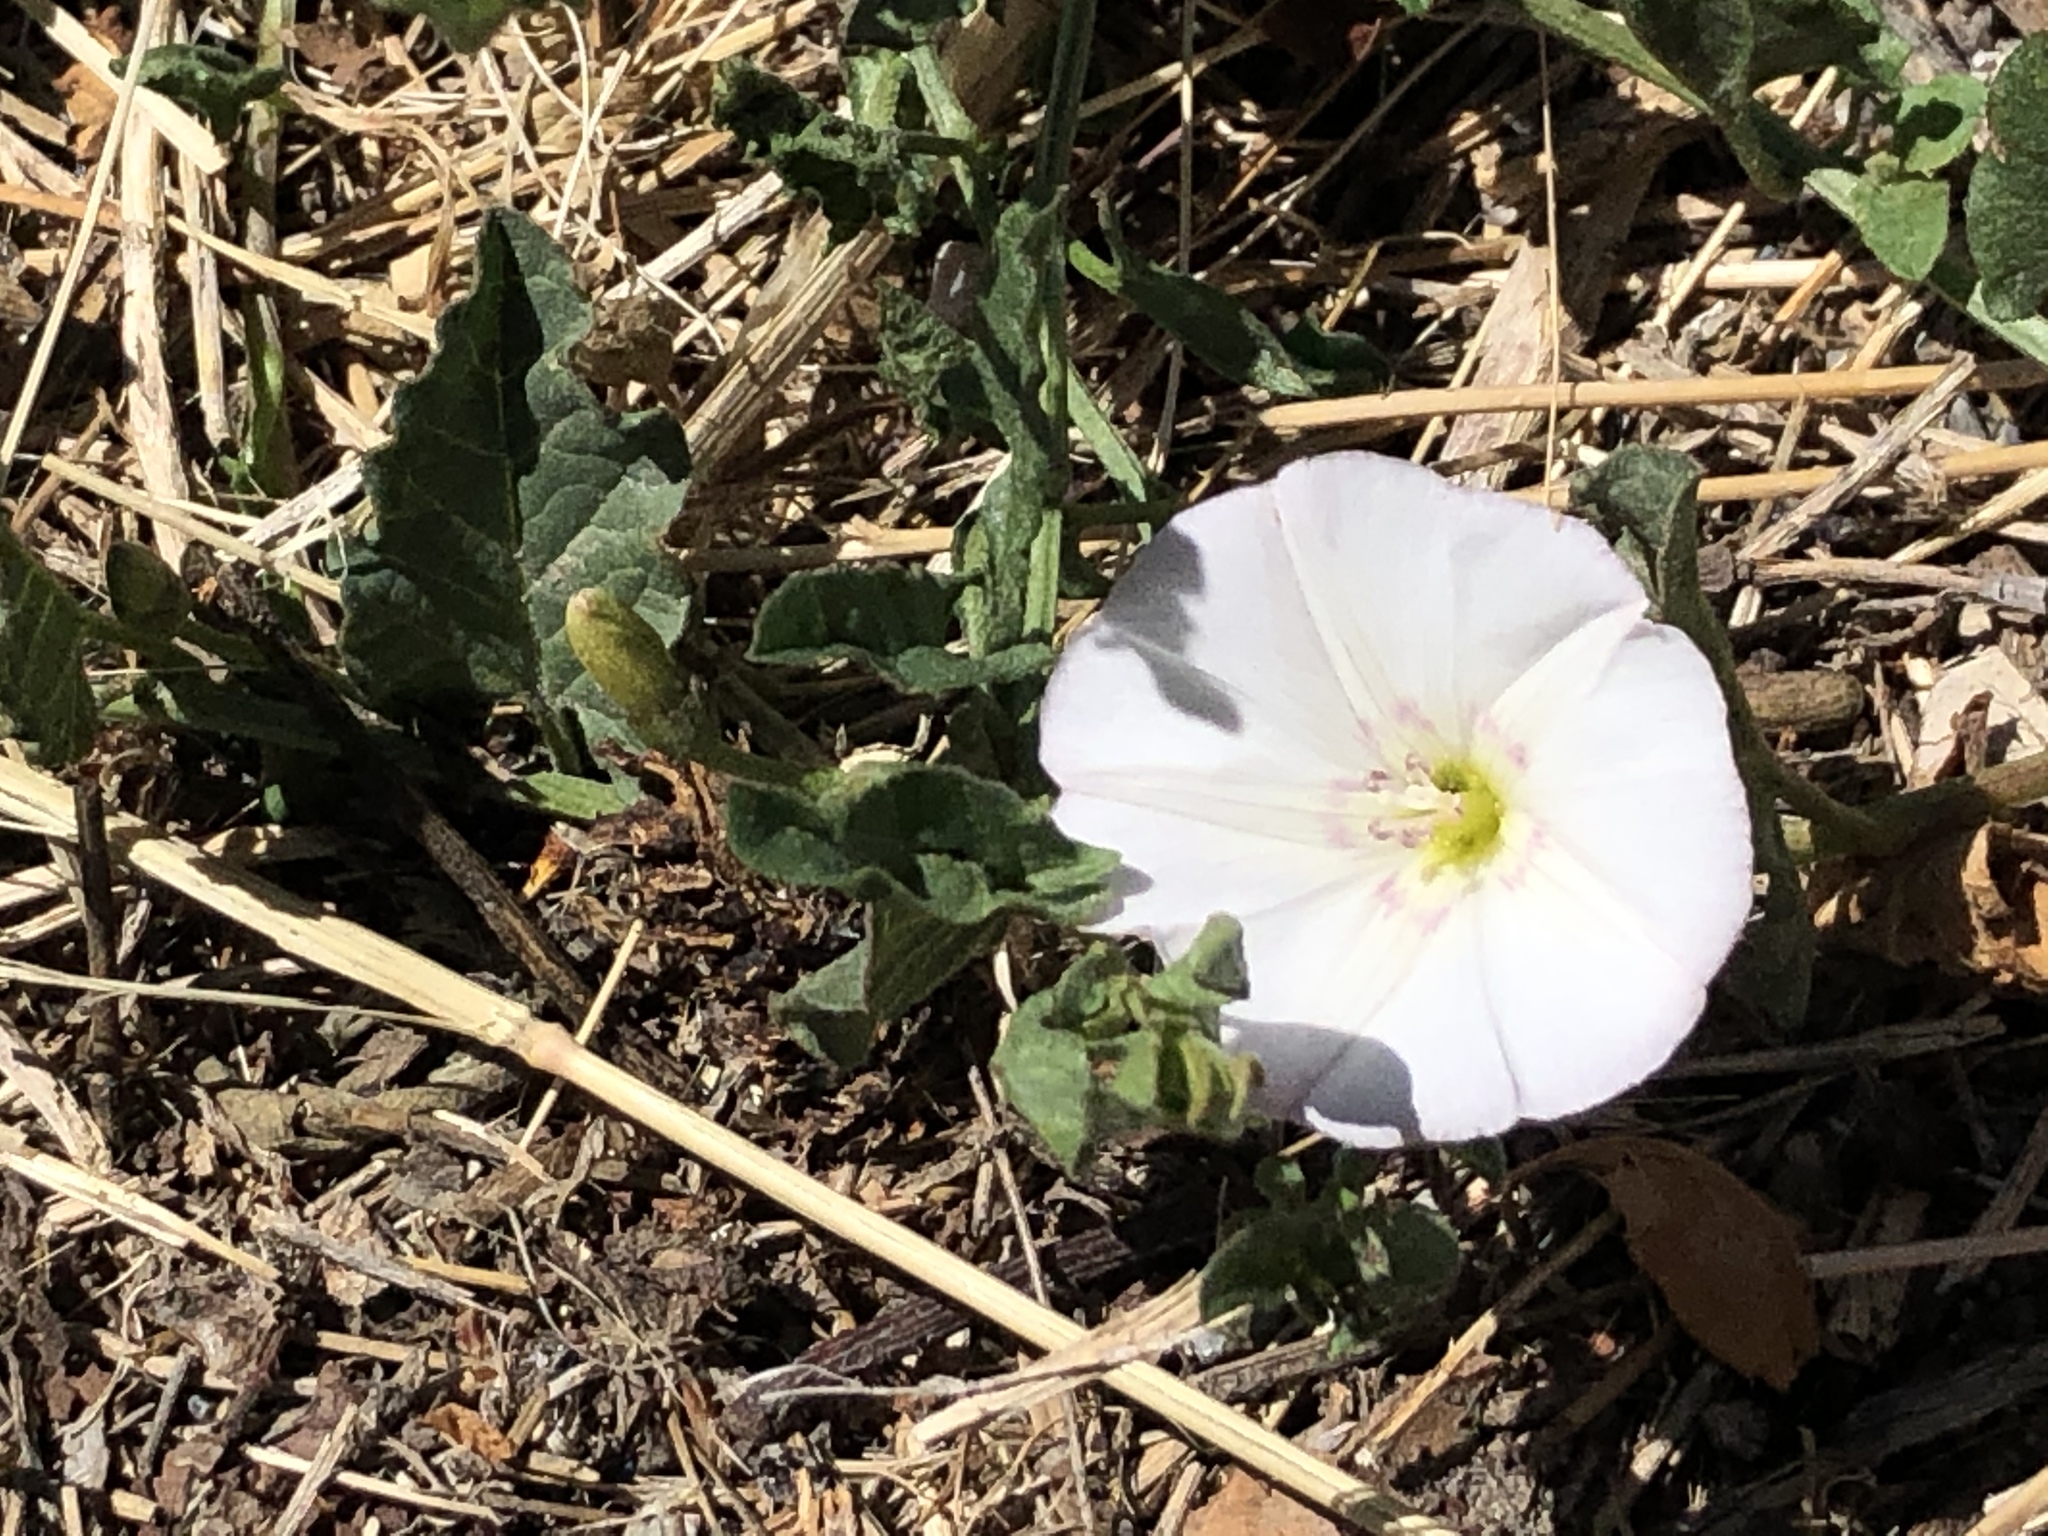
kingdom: Plantae
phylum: Tracheophyta
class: Magnoliopsida
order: Solanales
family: Convolvulaceae
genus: Convolvulus
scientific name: Convolvulus arvensis
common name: Field bindweed
